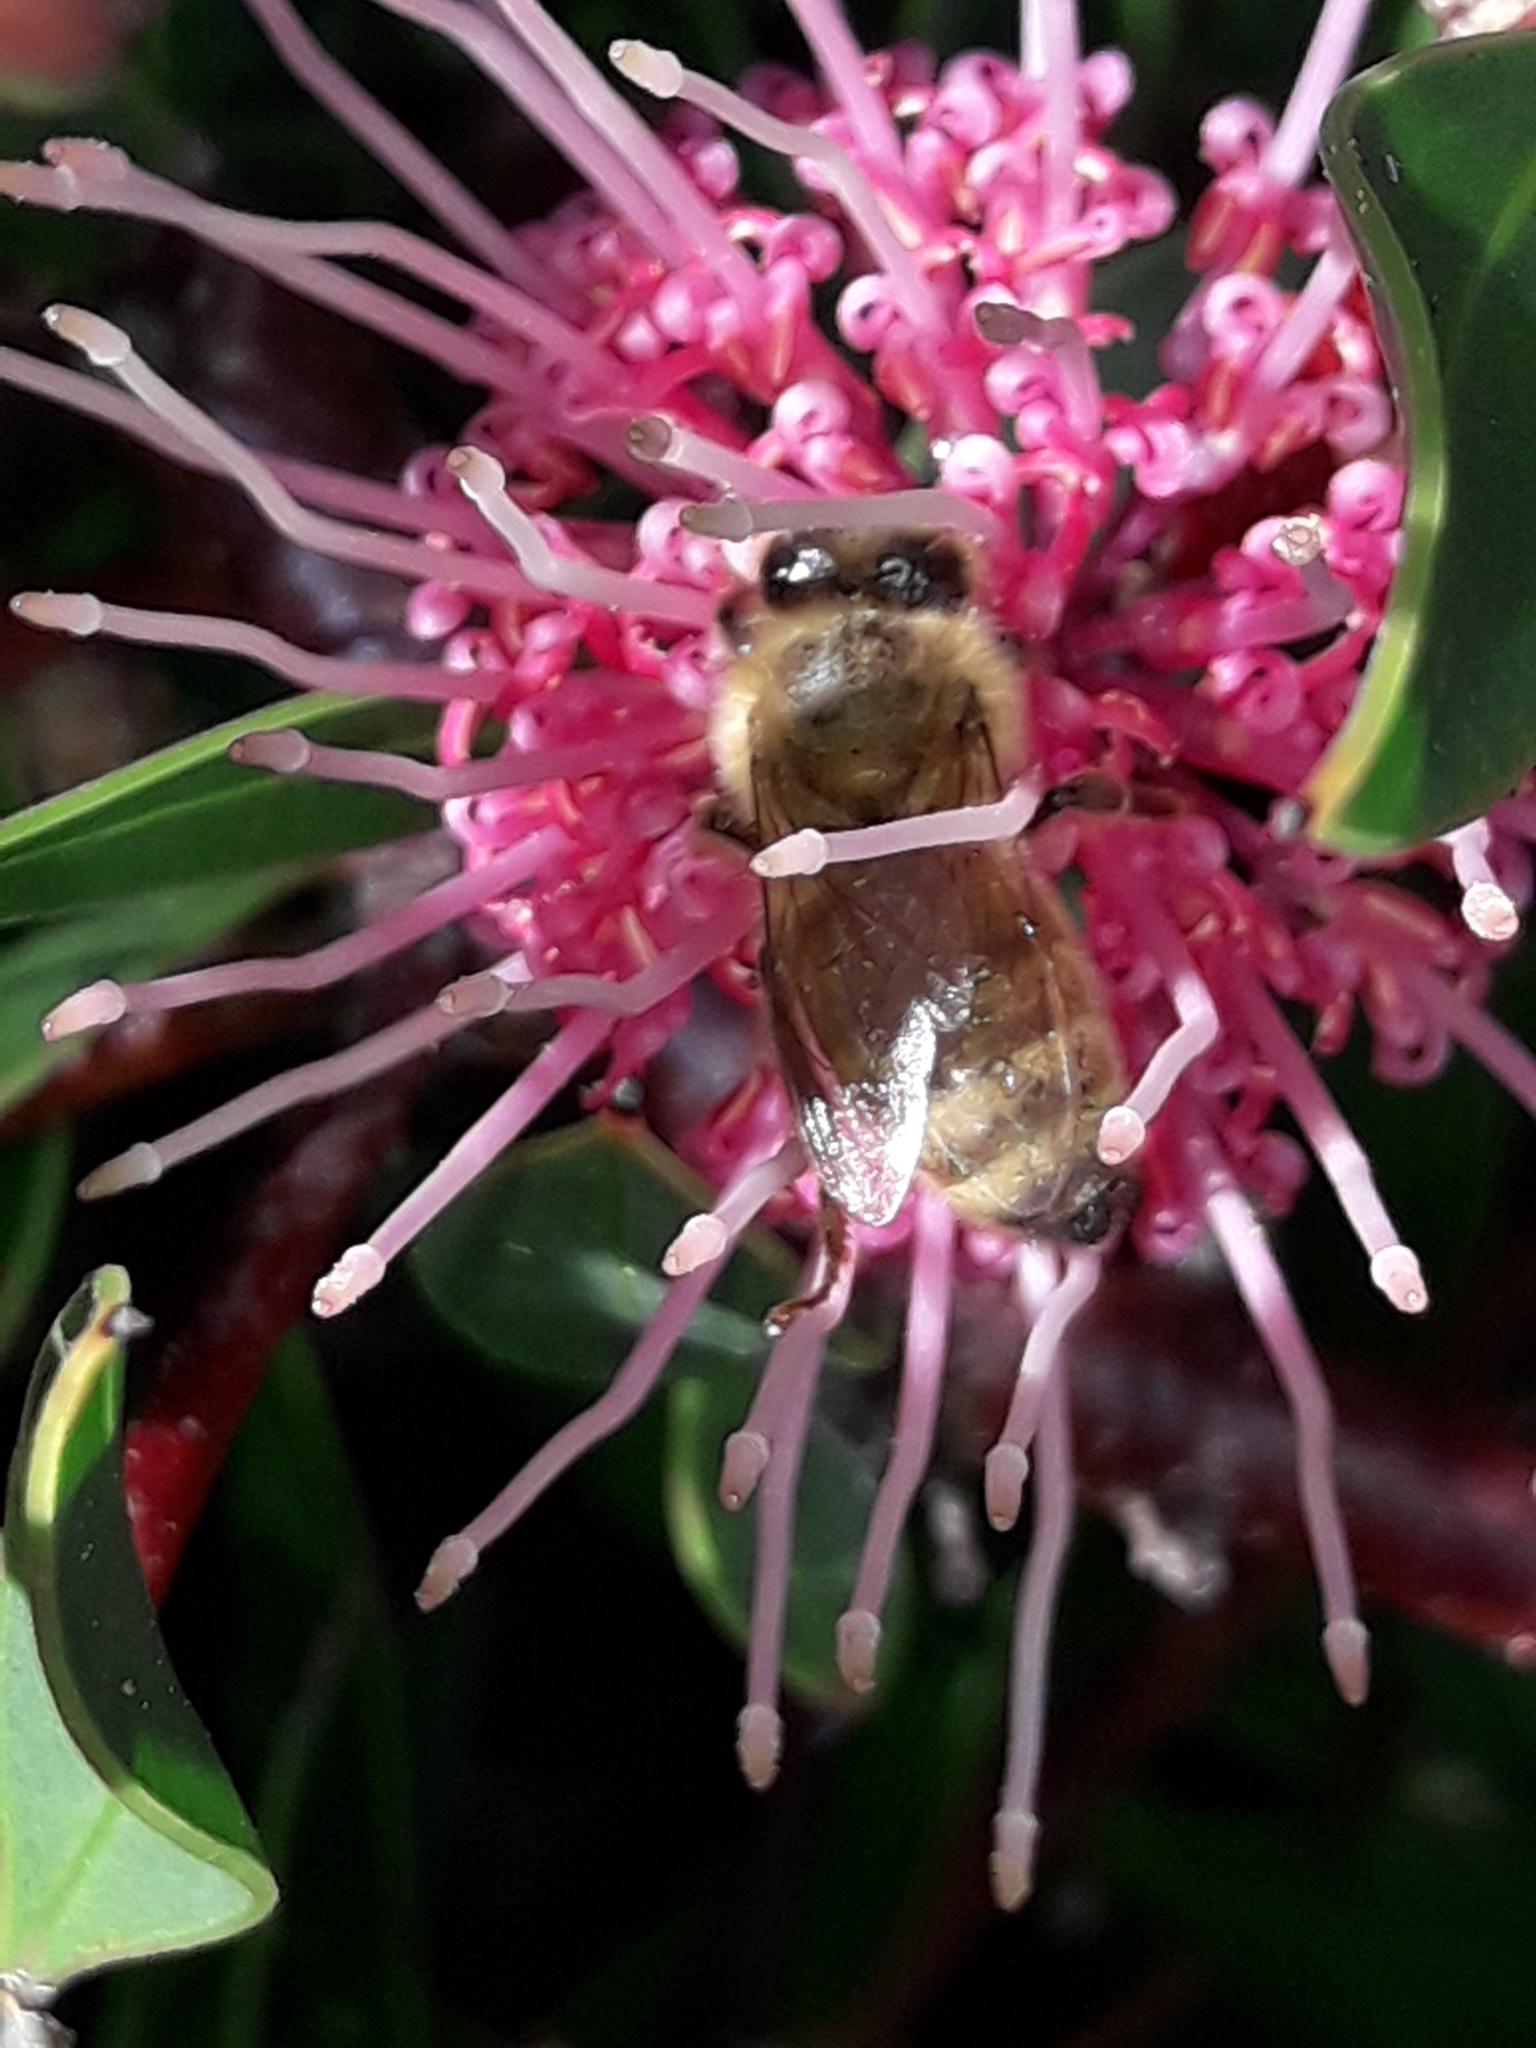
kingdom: Animalia
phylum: Arthropoda
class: Insecta
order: Hymenoptera
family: Apidae
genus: Apis
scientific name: Apis mellifera
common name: Honey bee
